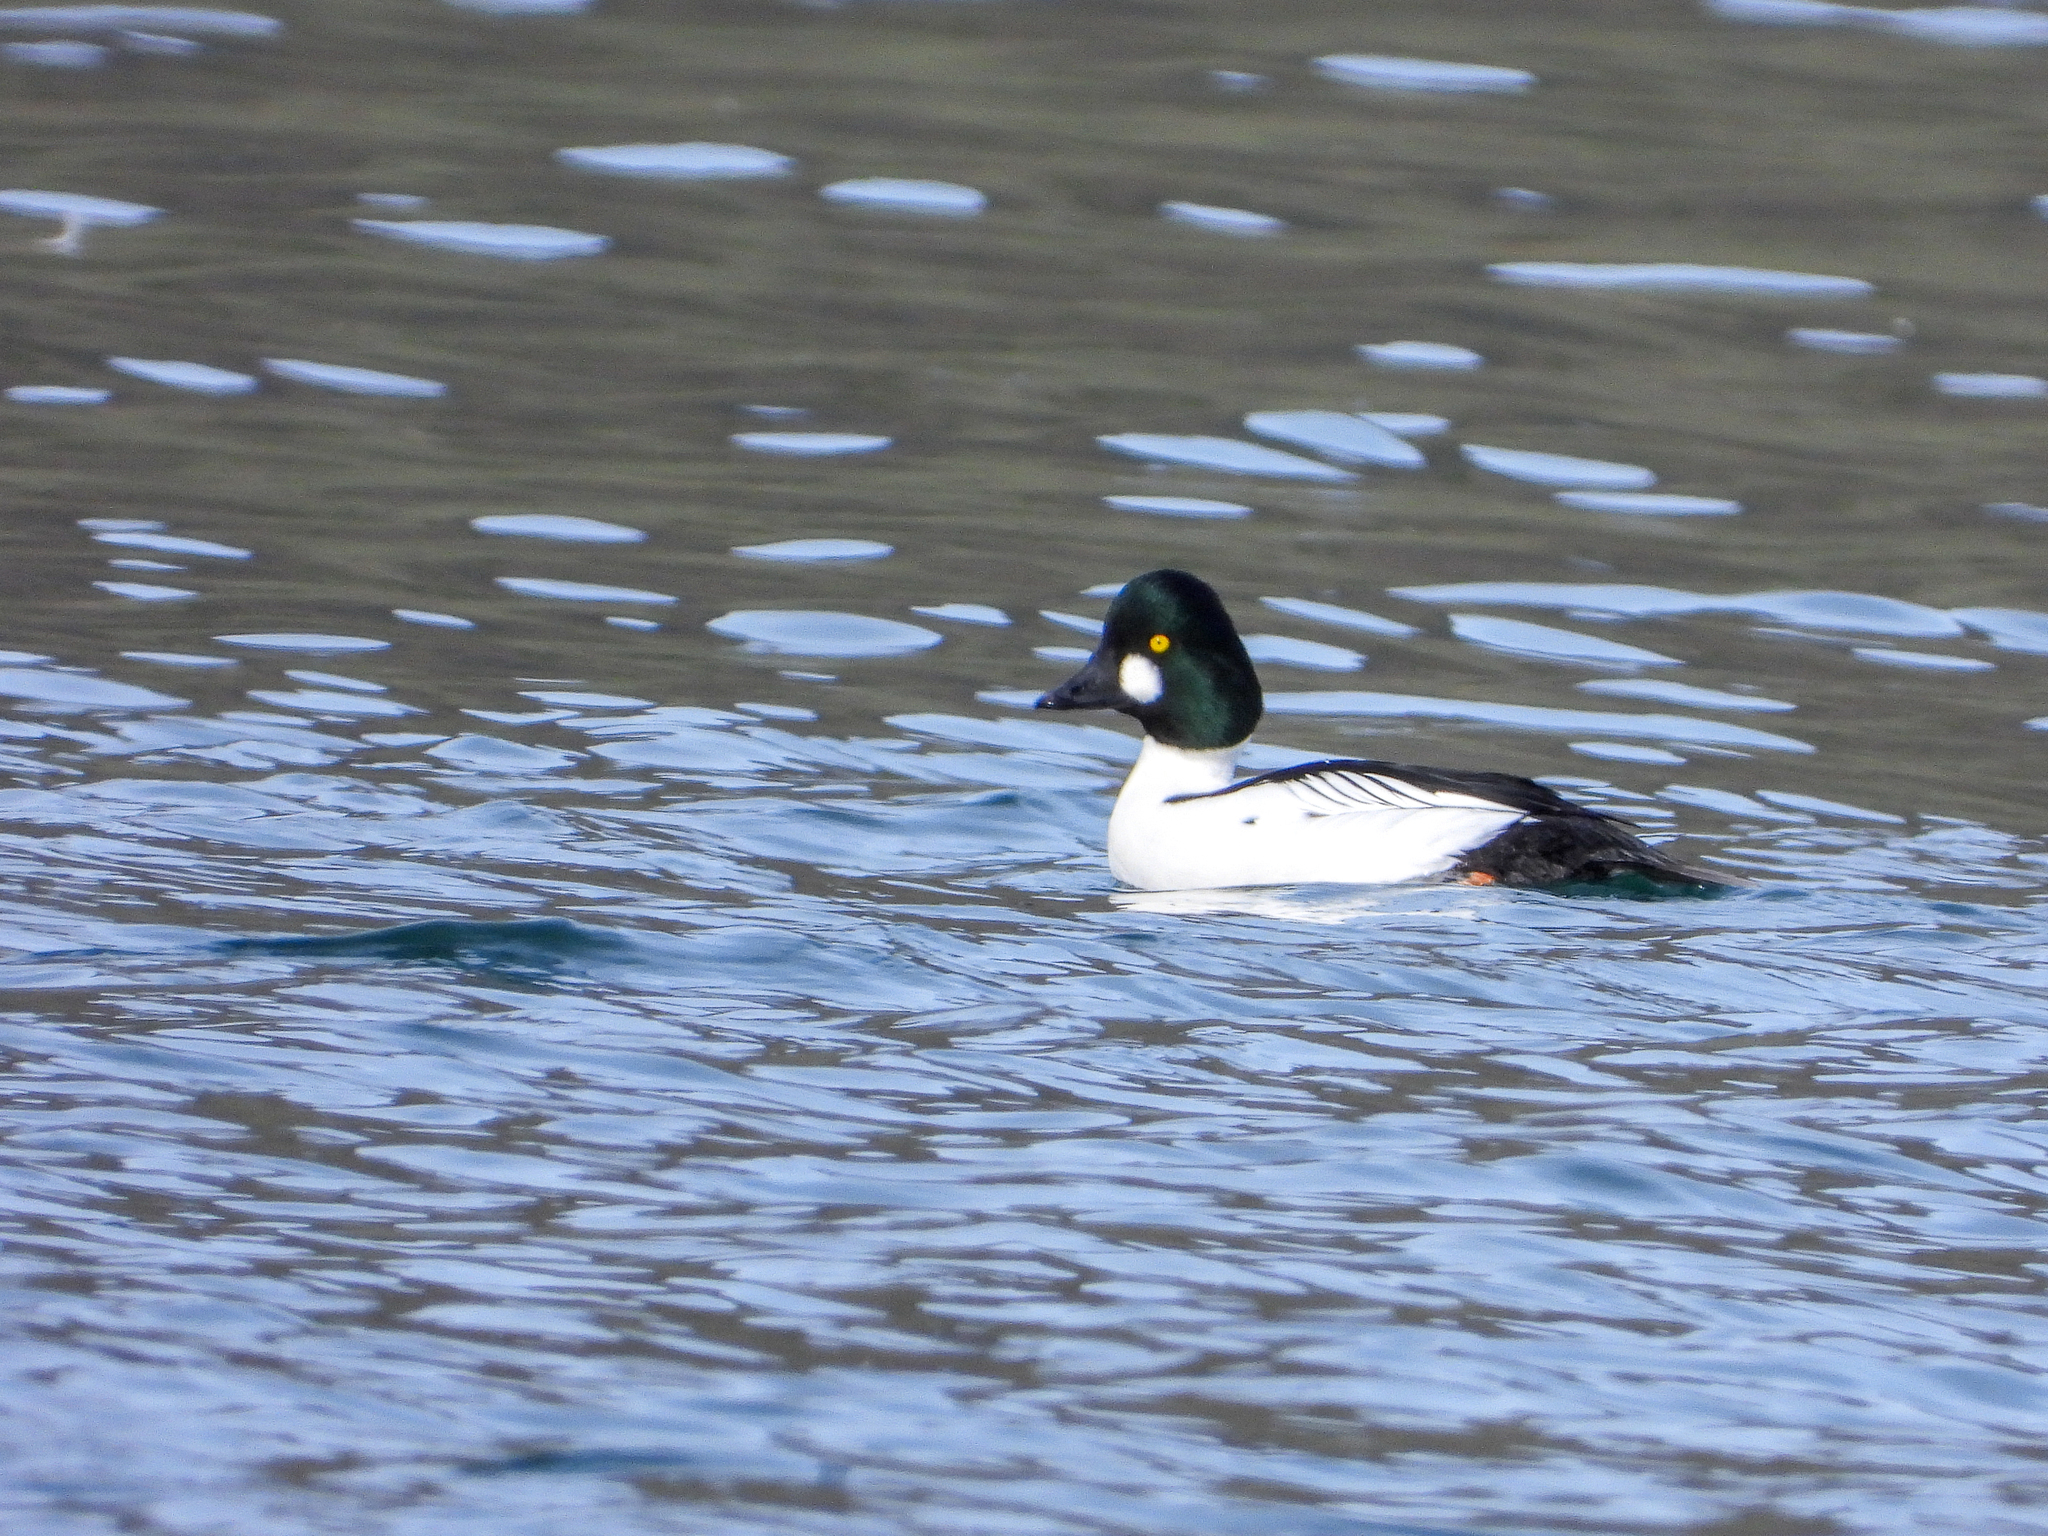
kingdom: Animalia
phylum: Chordata
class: Aves
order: Anseriformes
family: Anatidae
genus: Bucephala
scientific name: Bucephala clangula
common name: Common goldeneye
